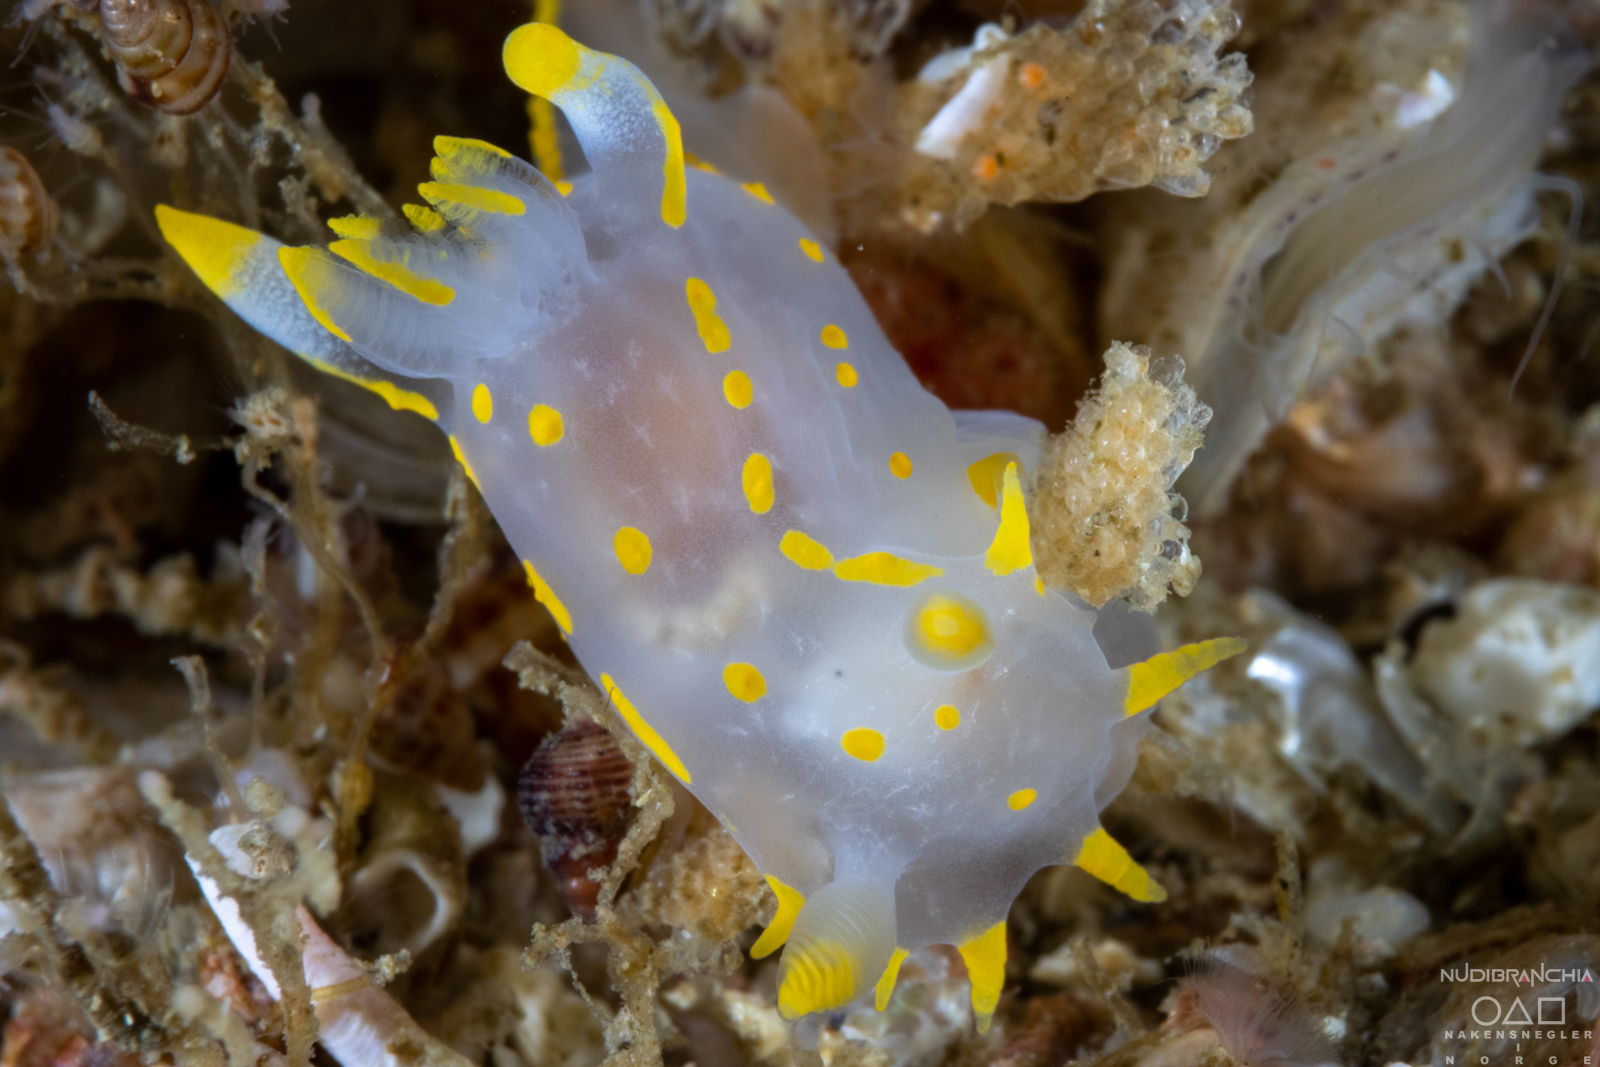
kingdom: Animalia
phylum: Mollusca
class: Gastropoda
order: Nudibranchia
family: Polyceridae
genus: Polycera
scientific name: Polycera quadrilineata
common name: Four-striped polycera
